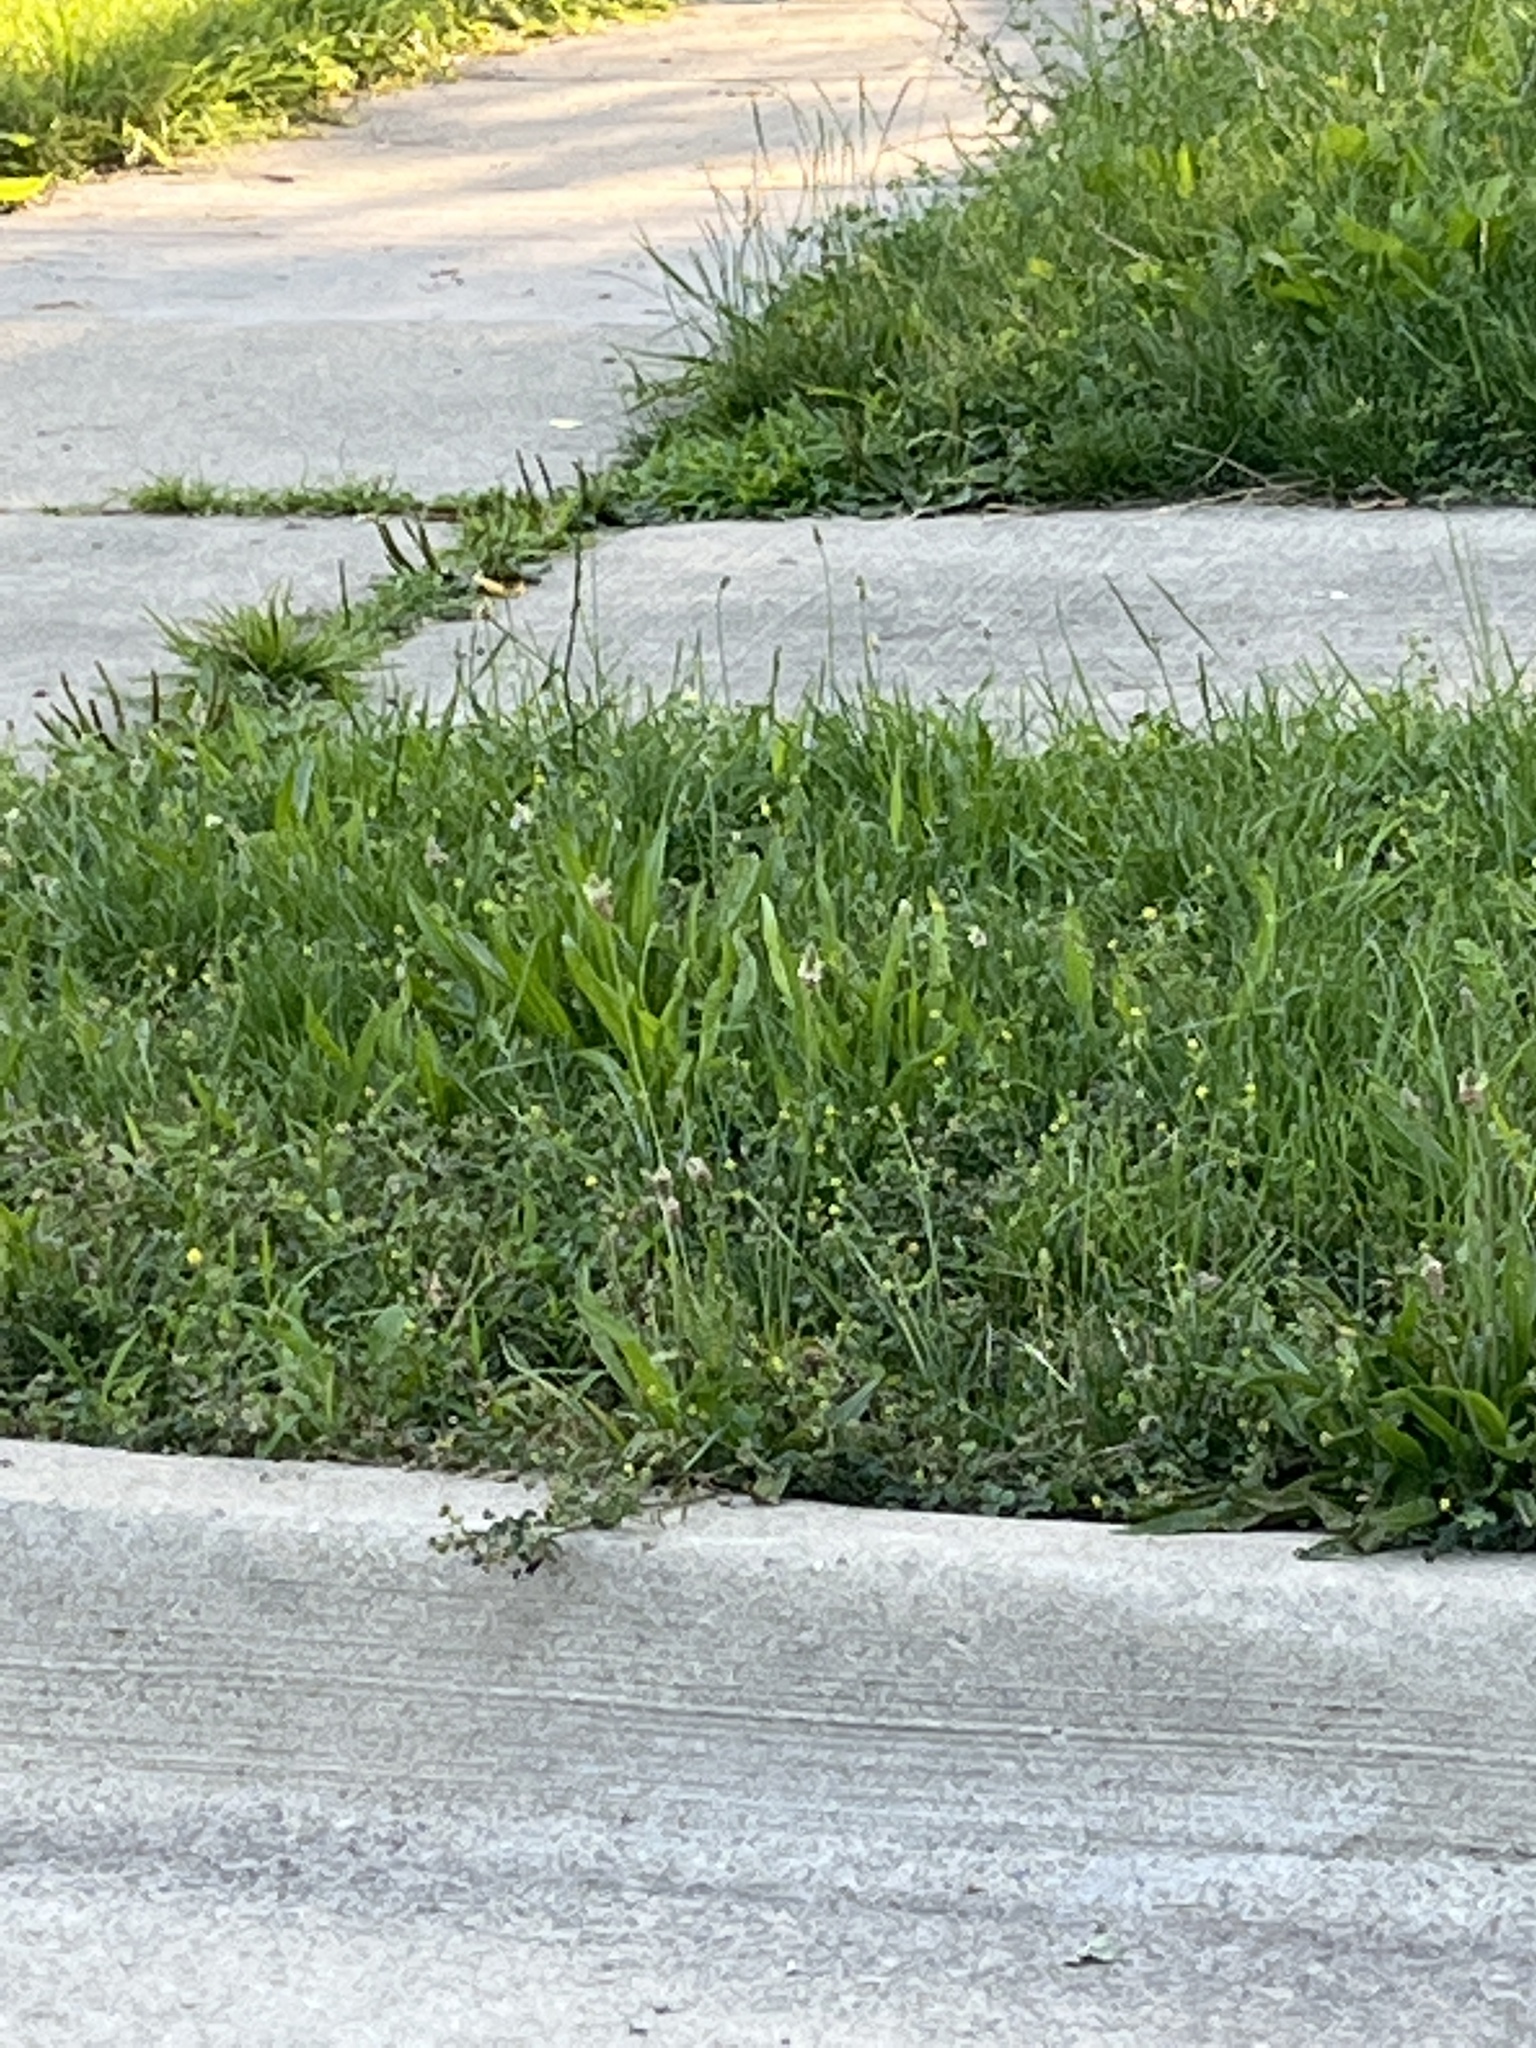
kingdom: Plantae
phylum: Tracheophyta
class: Magnoliopsida
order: Lamiales
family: Plantaginaceae
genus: Plantago
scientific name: Plantago lanceolata
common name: Ribwort plantain
